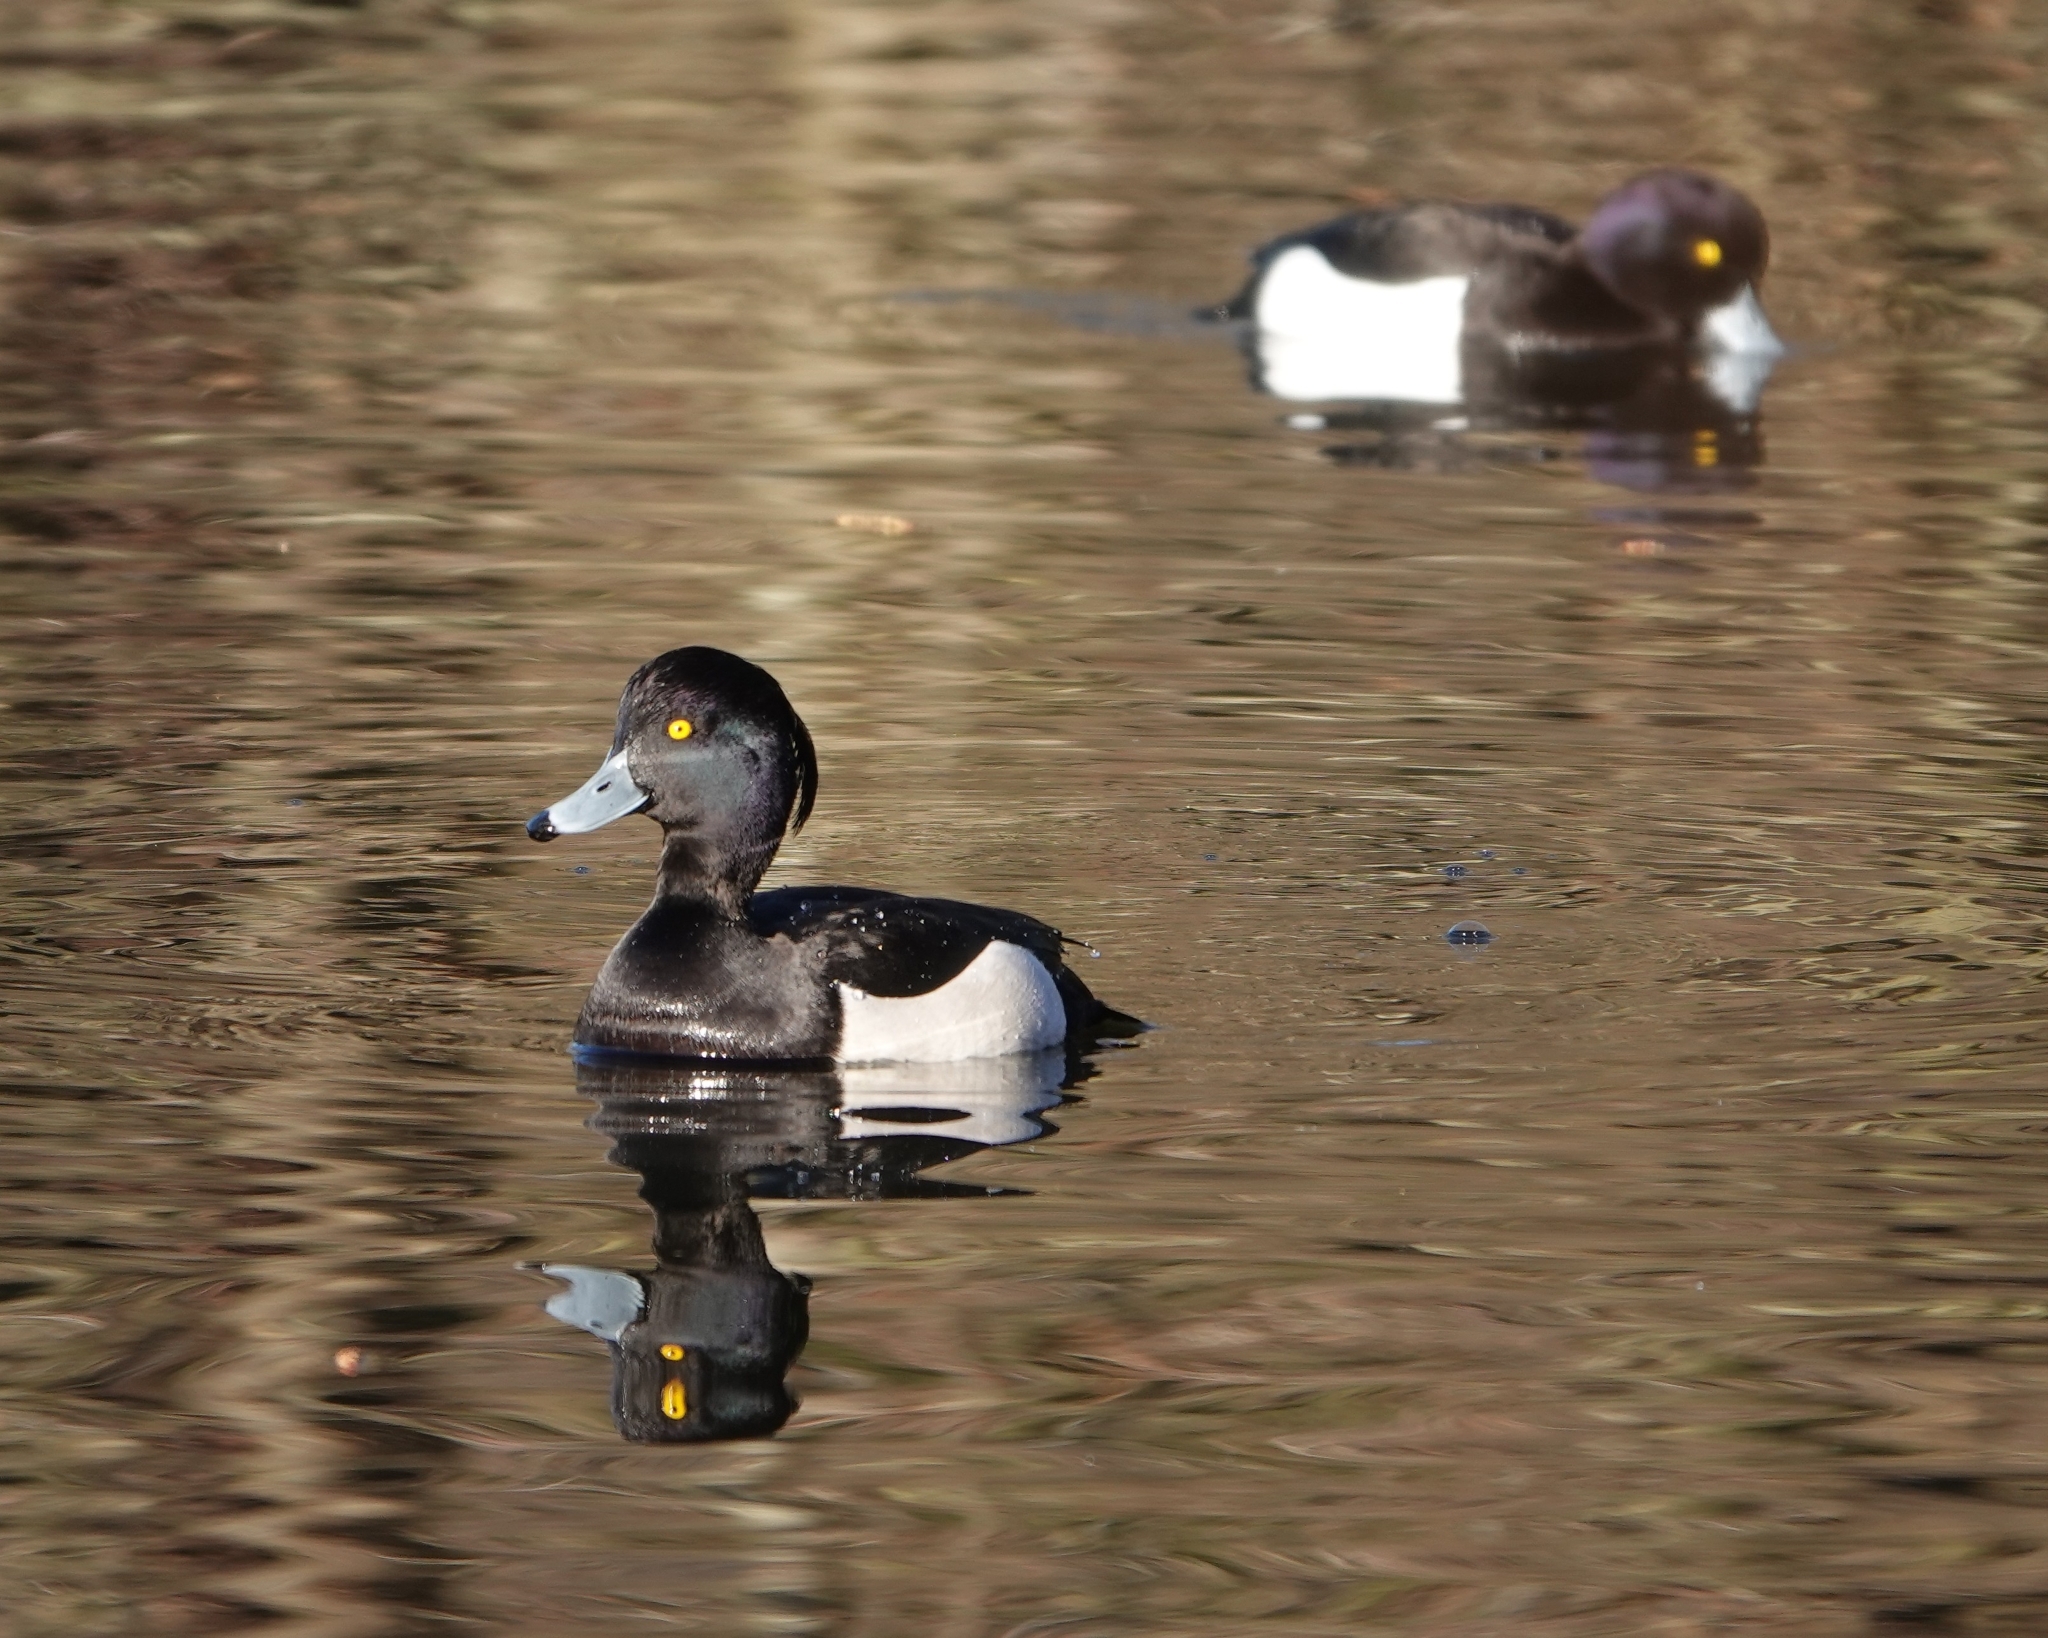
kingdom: Animalia
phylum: Chordata
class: Aves
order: Anseriformes
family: Anatidae
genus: Aythya
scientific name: Aythya fuligula
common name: Tufted duck
